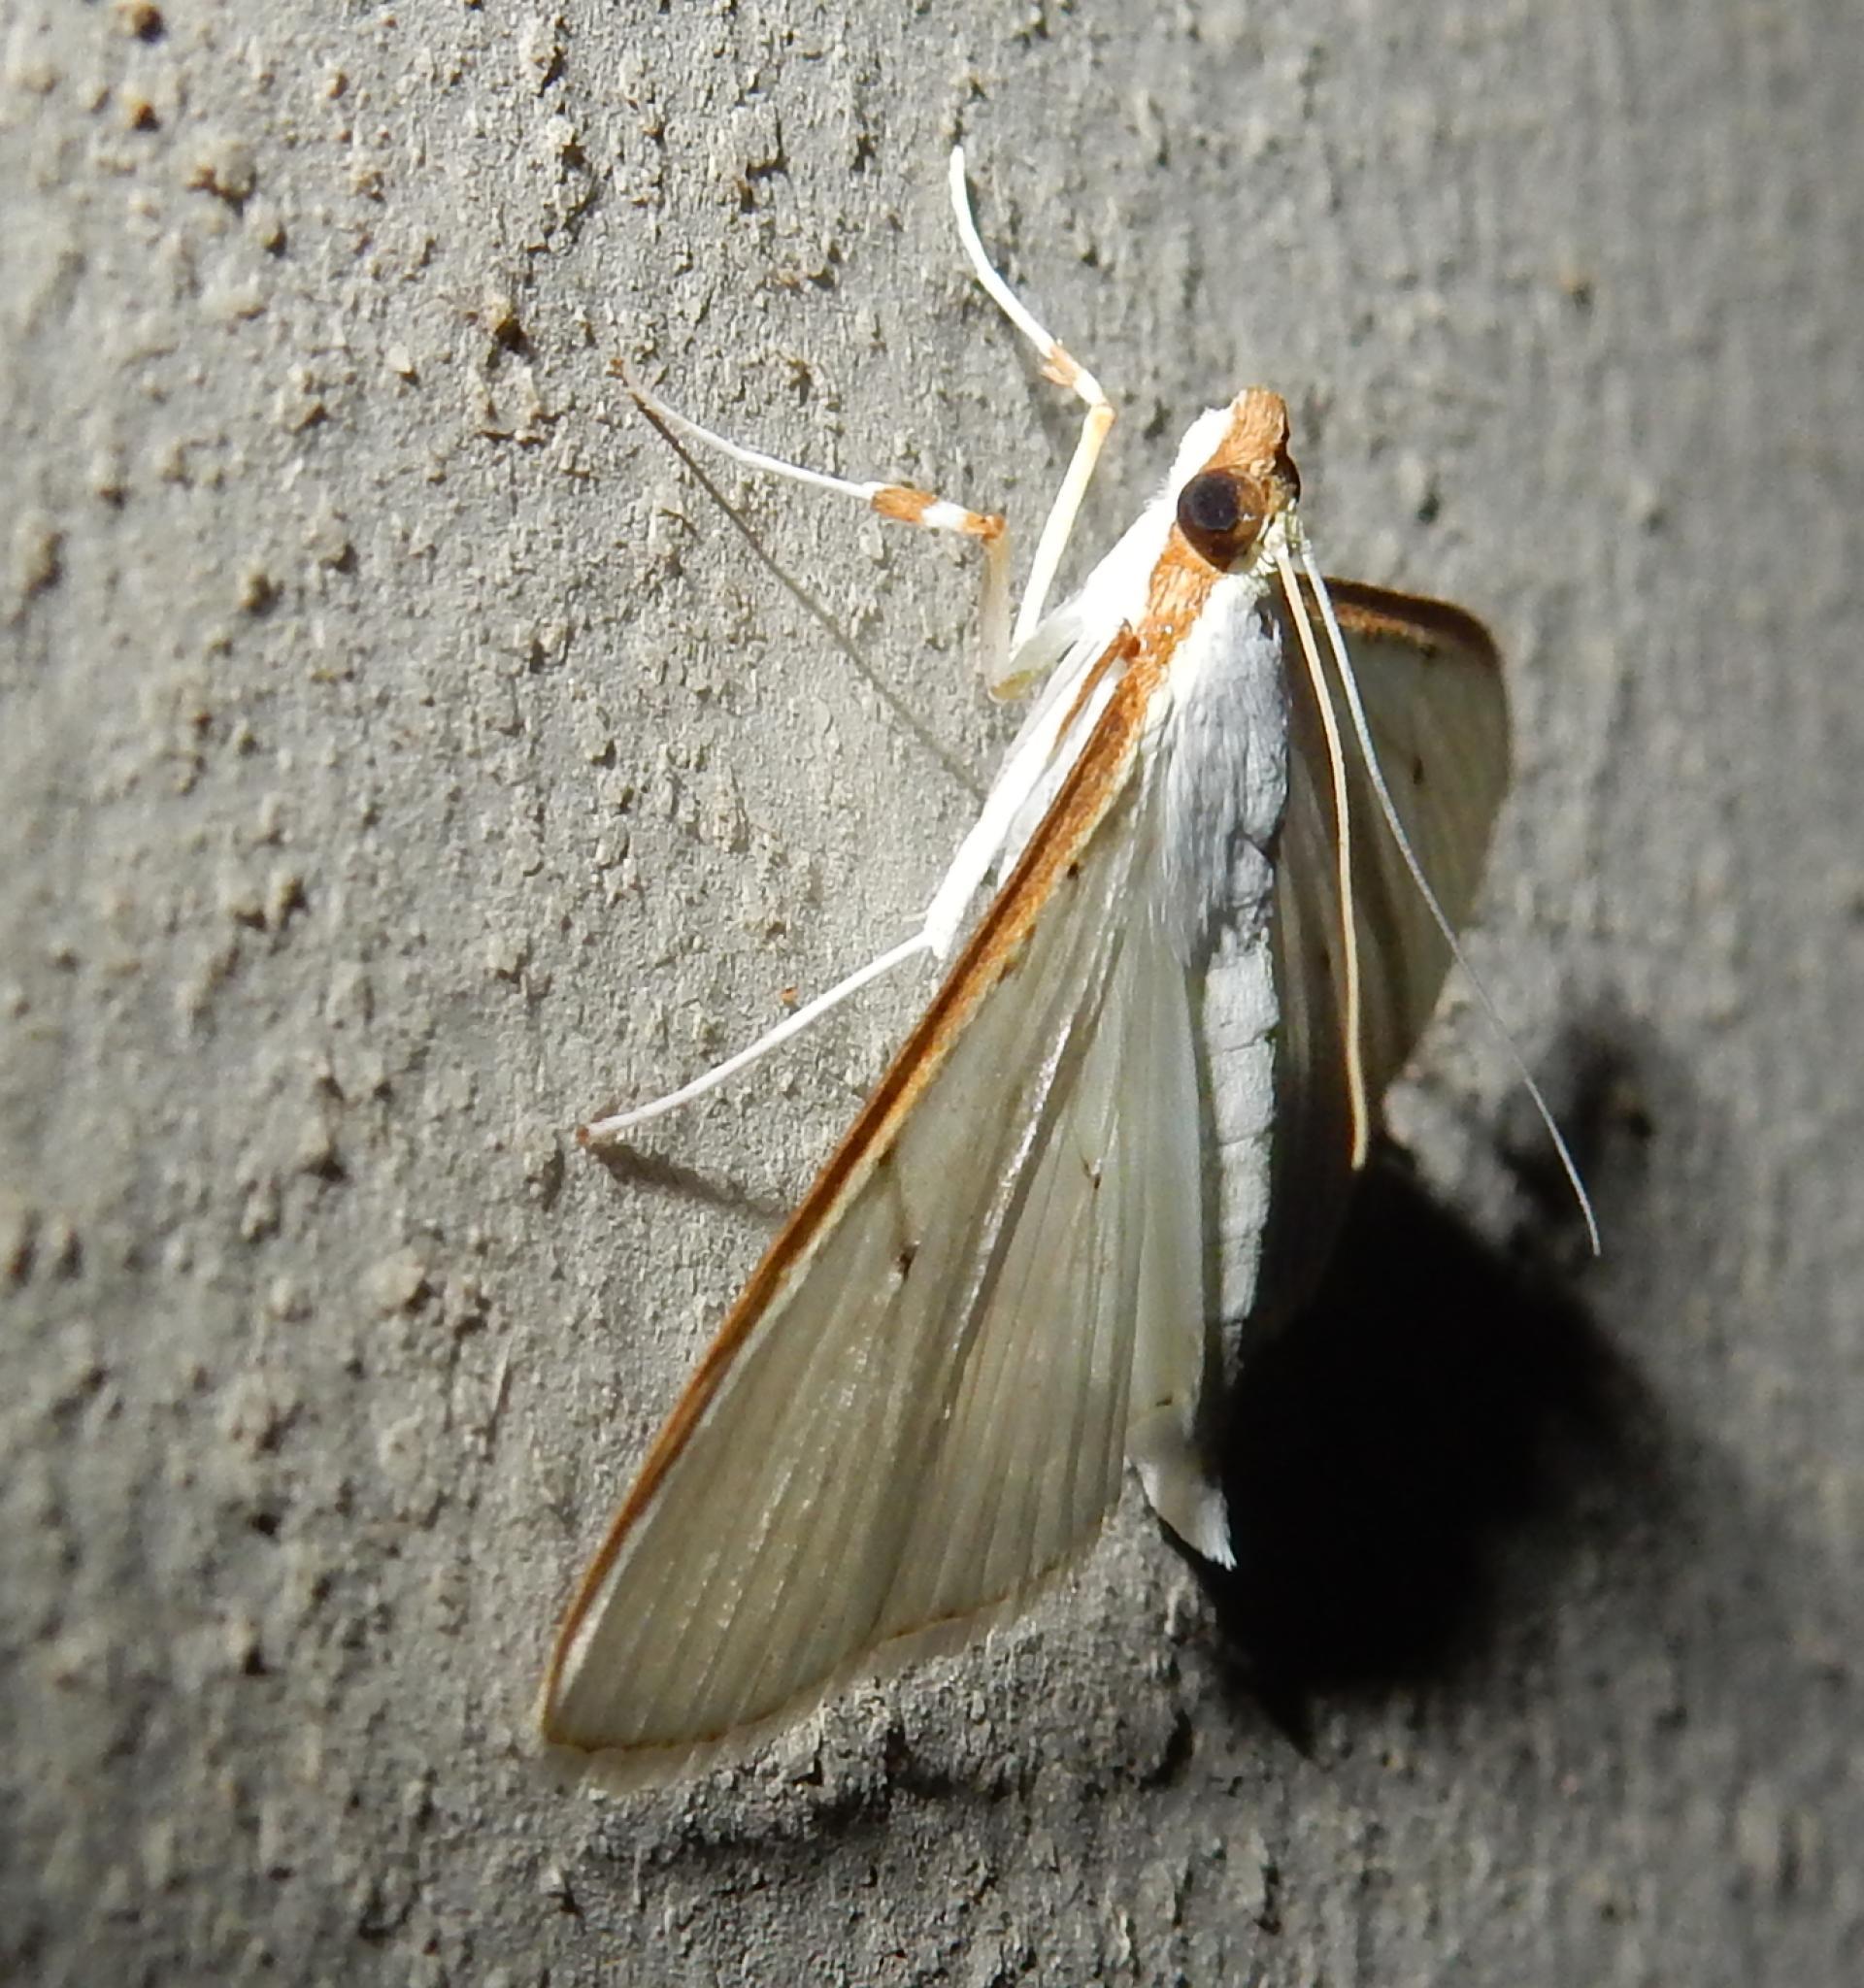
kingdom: Animalia
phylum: Arthropoda
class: Insecta
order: Lepidoptera
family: Crambidae
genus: Palpita
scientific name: Palpita vitrealis
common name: Olive-tree pearl
